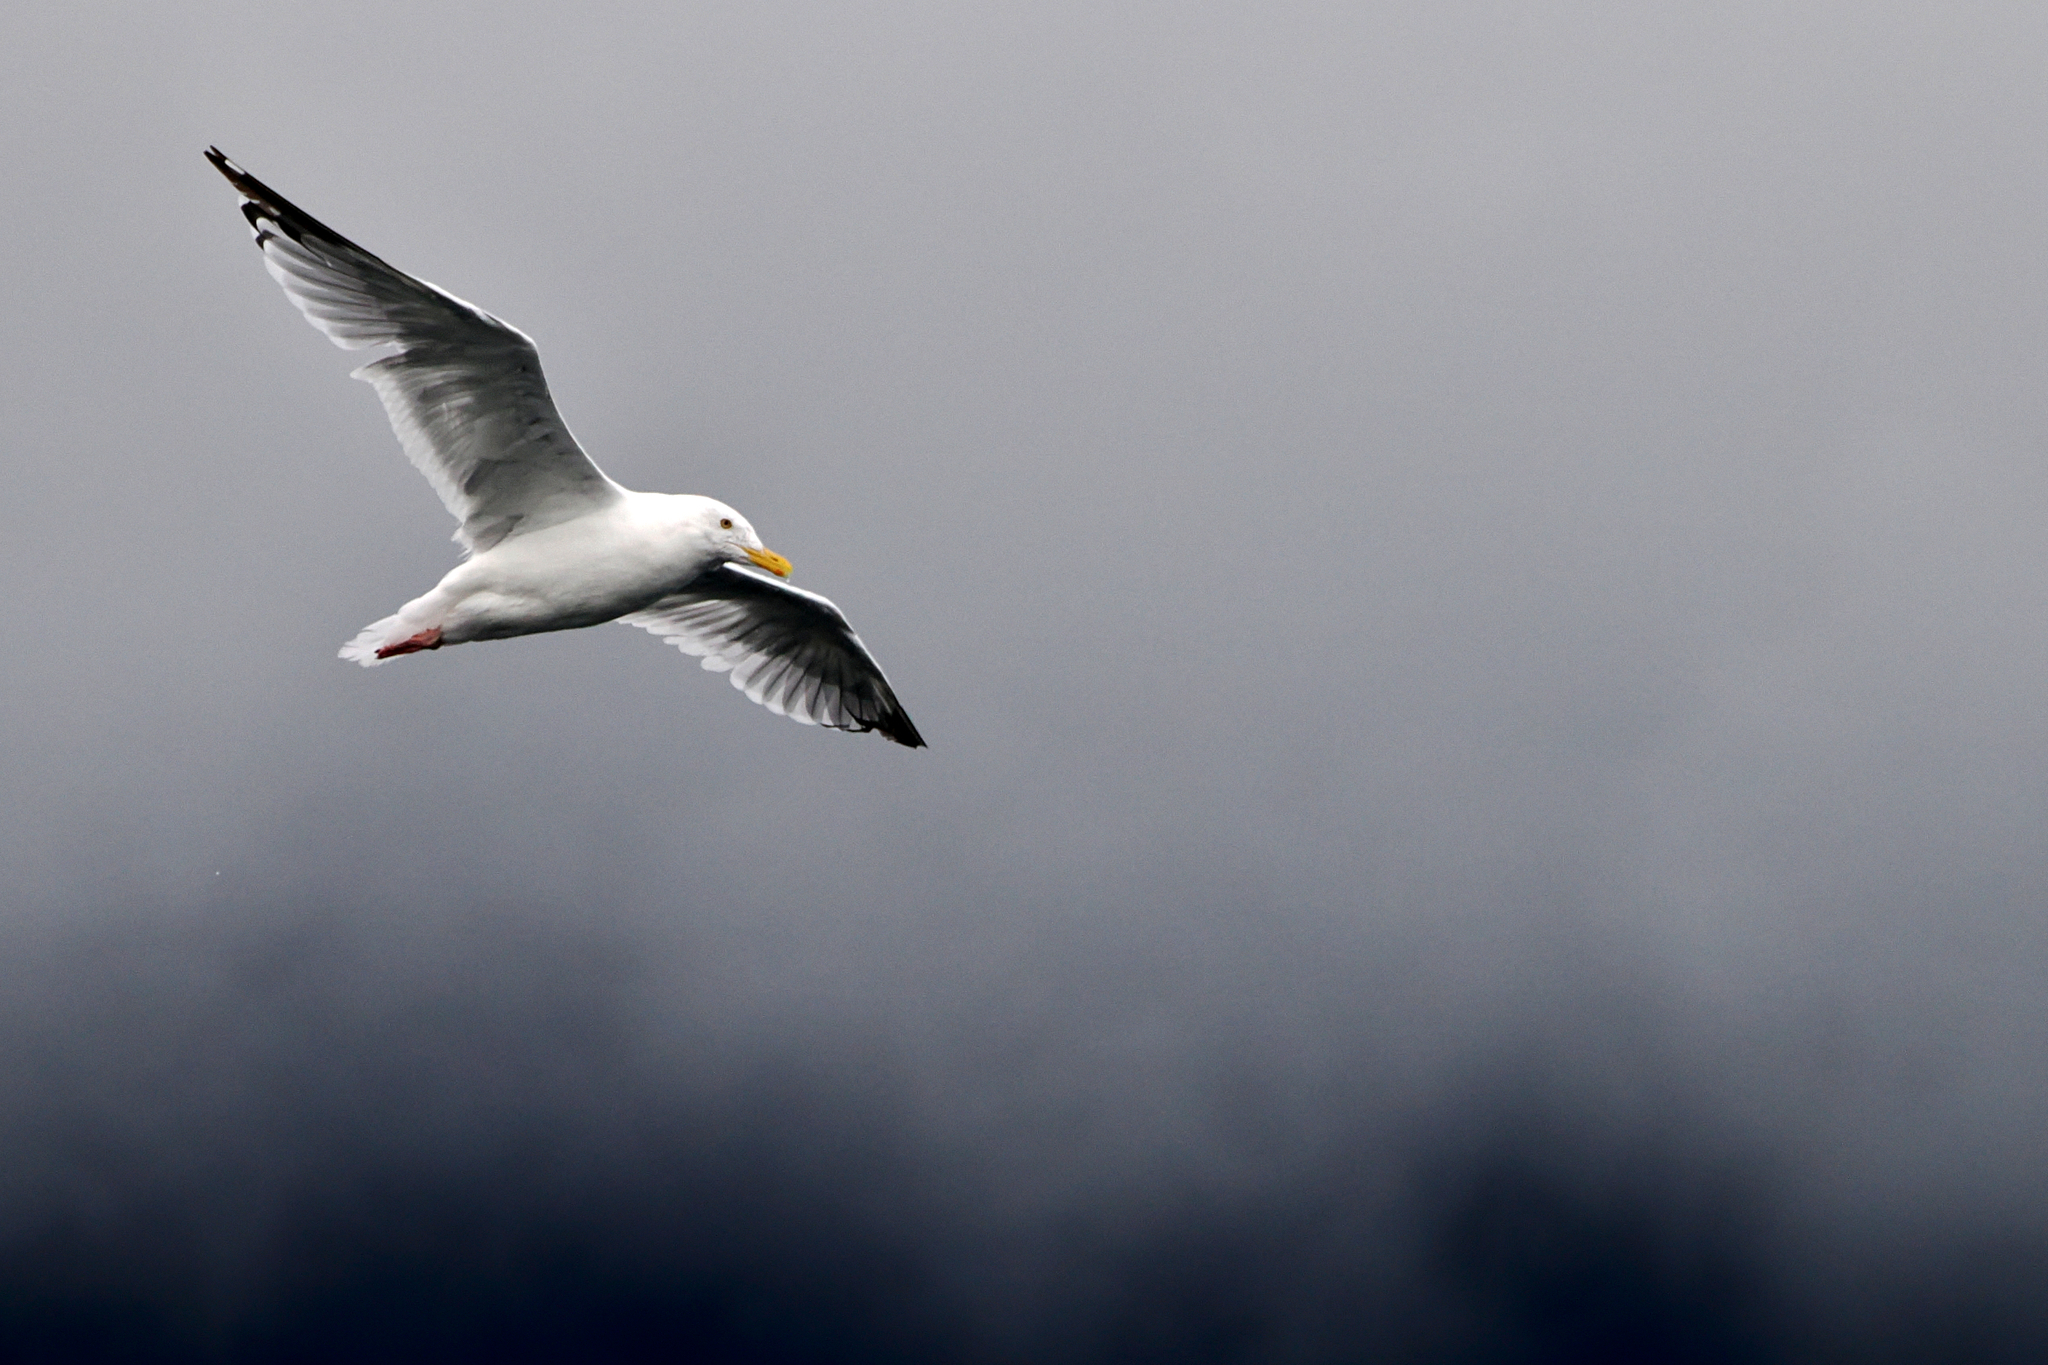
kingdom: Animalia
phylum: Chordata
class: Aves
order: Charadriiformes
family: Laridae
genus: Larus
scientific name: Larus argentatus
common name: Herring gull
